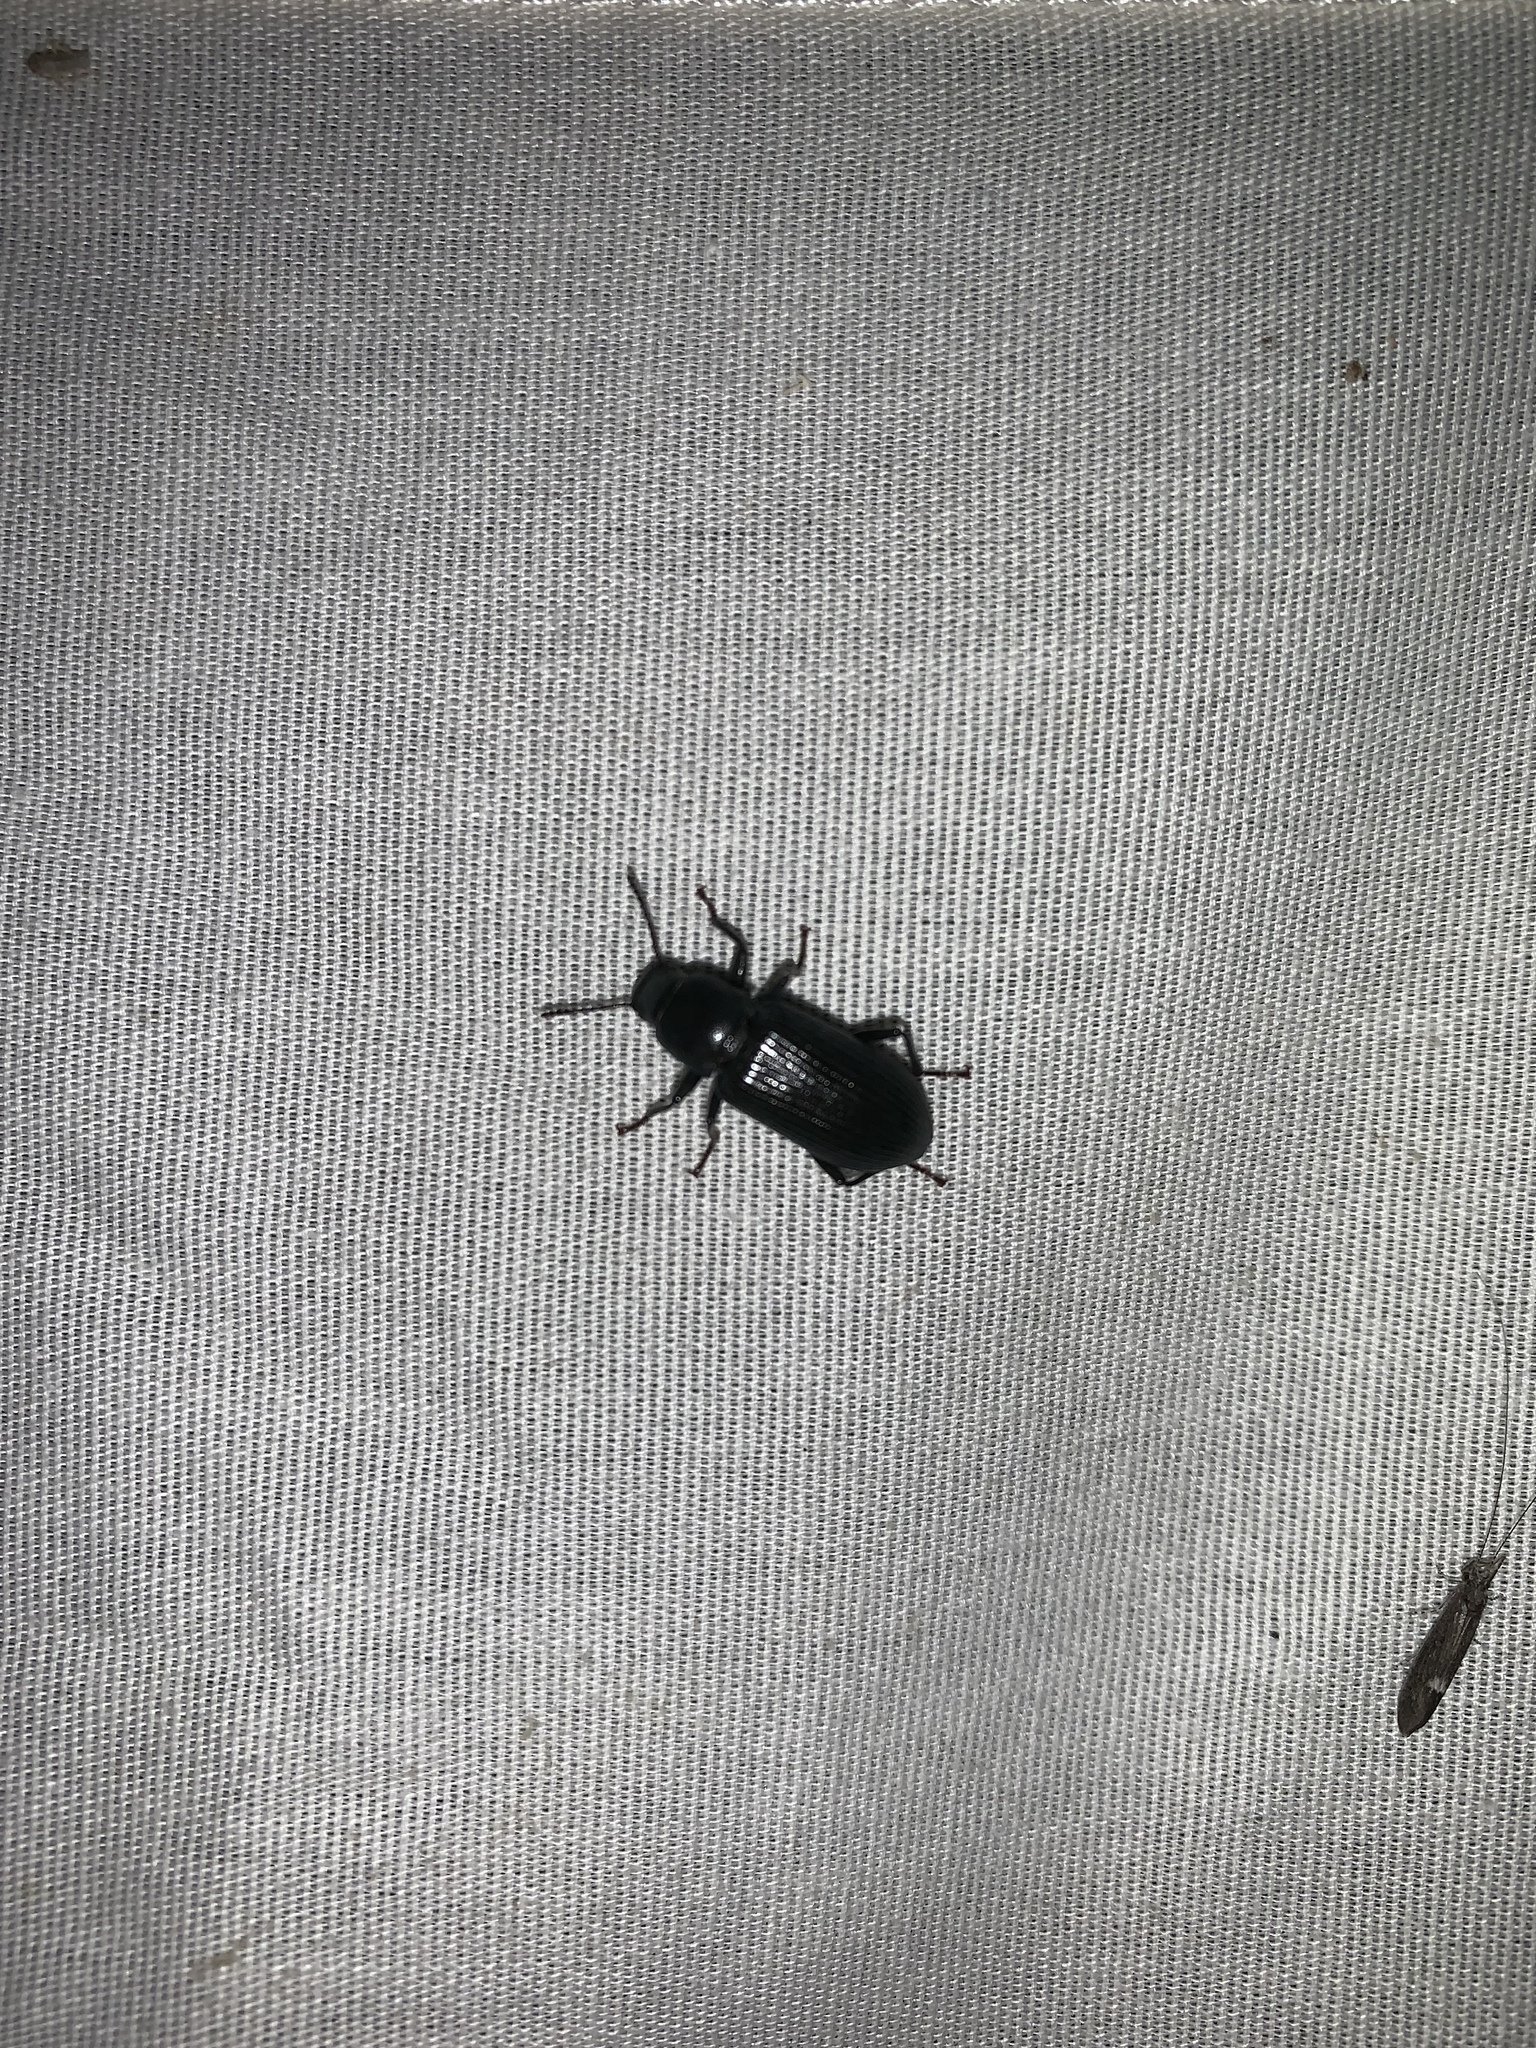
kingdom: Animalia
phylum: Arthropoda
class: Insecta
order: Coleoptera
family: Tenebrionidae
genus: Xylopinus
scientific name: Xylopinus saperdoides
